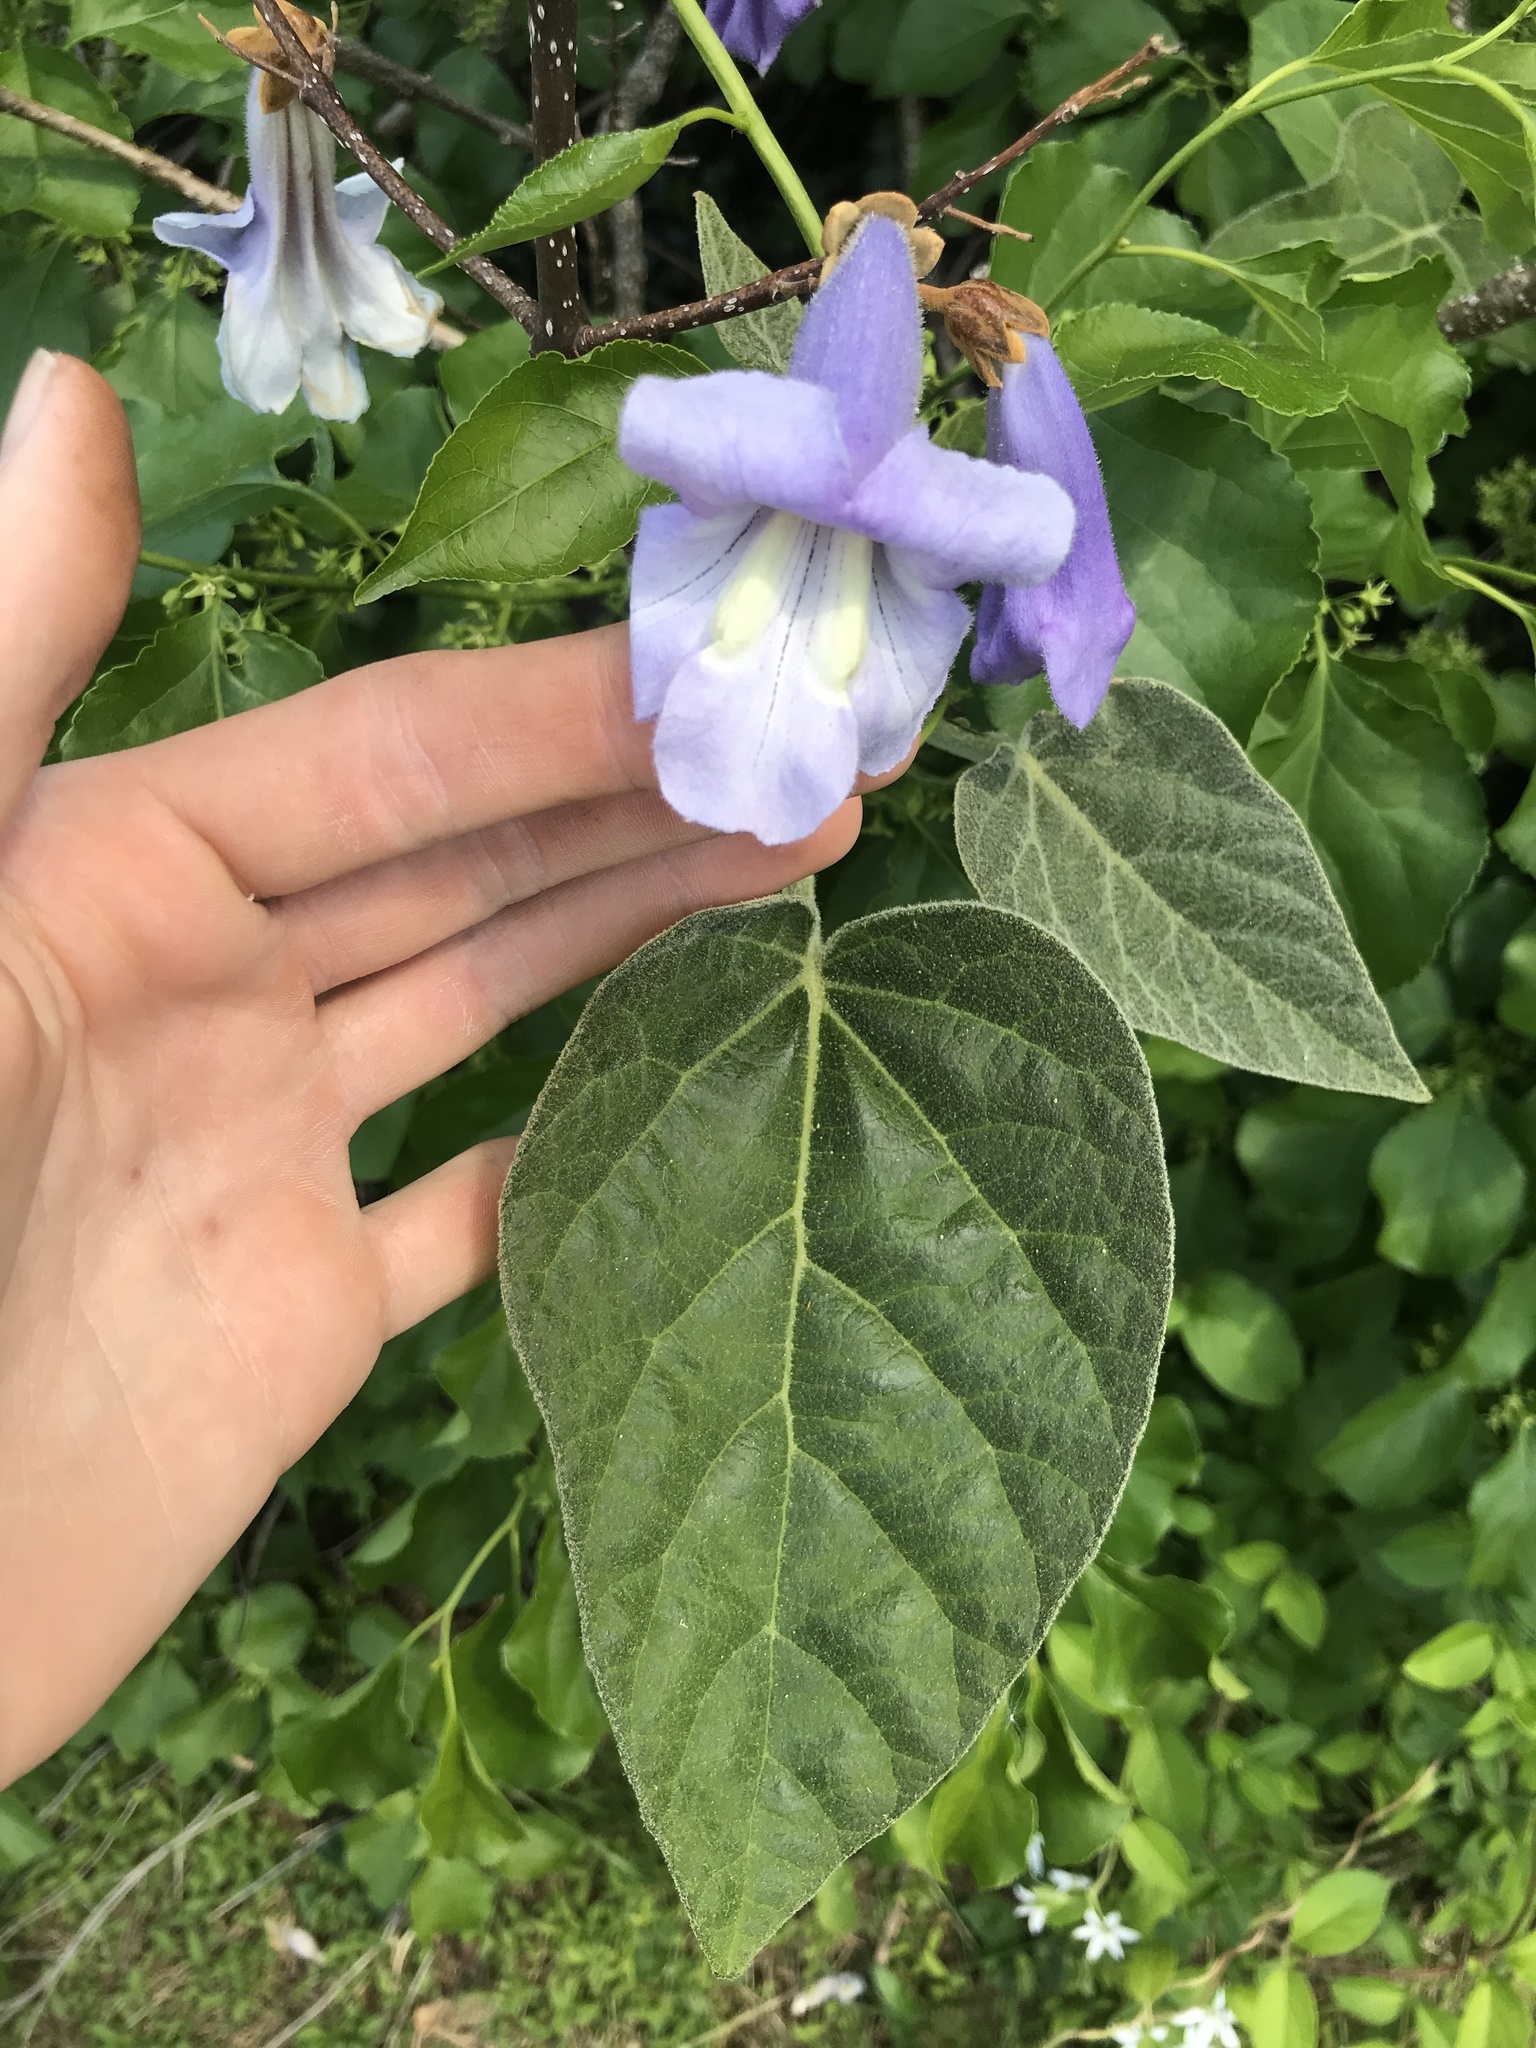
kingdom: Plantae
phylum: Tracheophyta
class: Magnoliopsida
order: Lamiales
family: Paulowniaceae
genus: Paulownia
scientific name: Paulownia tomentosa
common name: Foxglove-tree
